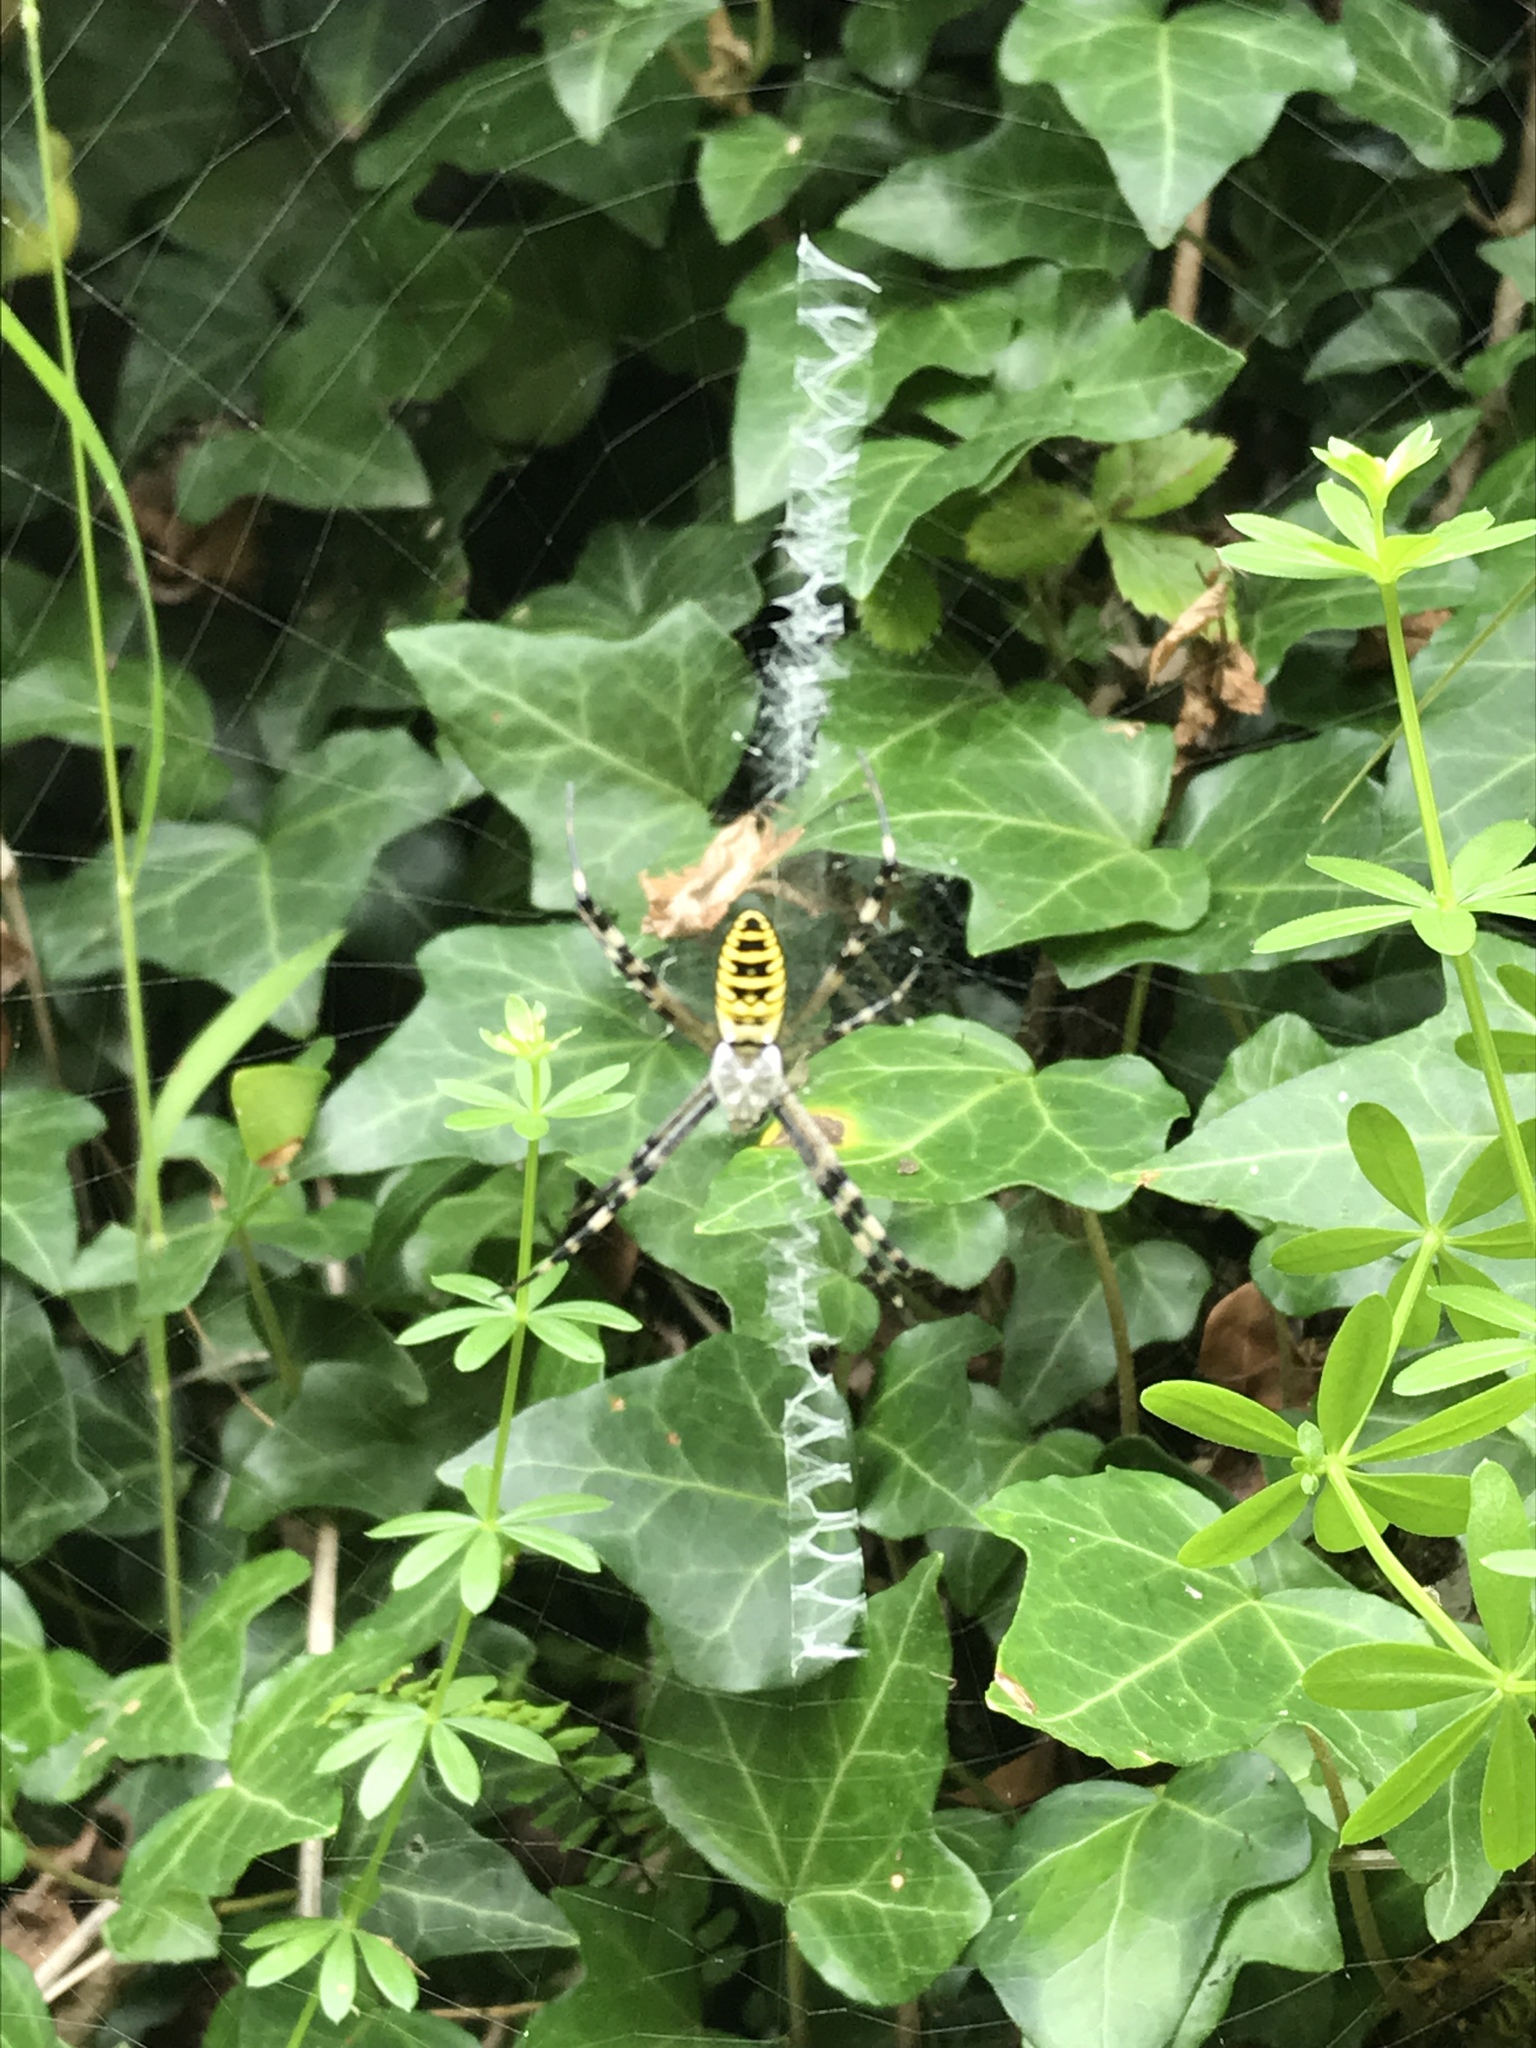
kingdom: Animalia
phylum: Arthropoda
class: Arachnida
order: Araneae
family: Araneidae
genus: Argiope
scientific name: Argiope bruennichi
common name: Wasp spider
